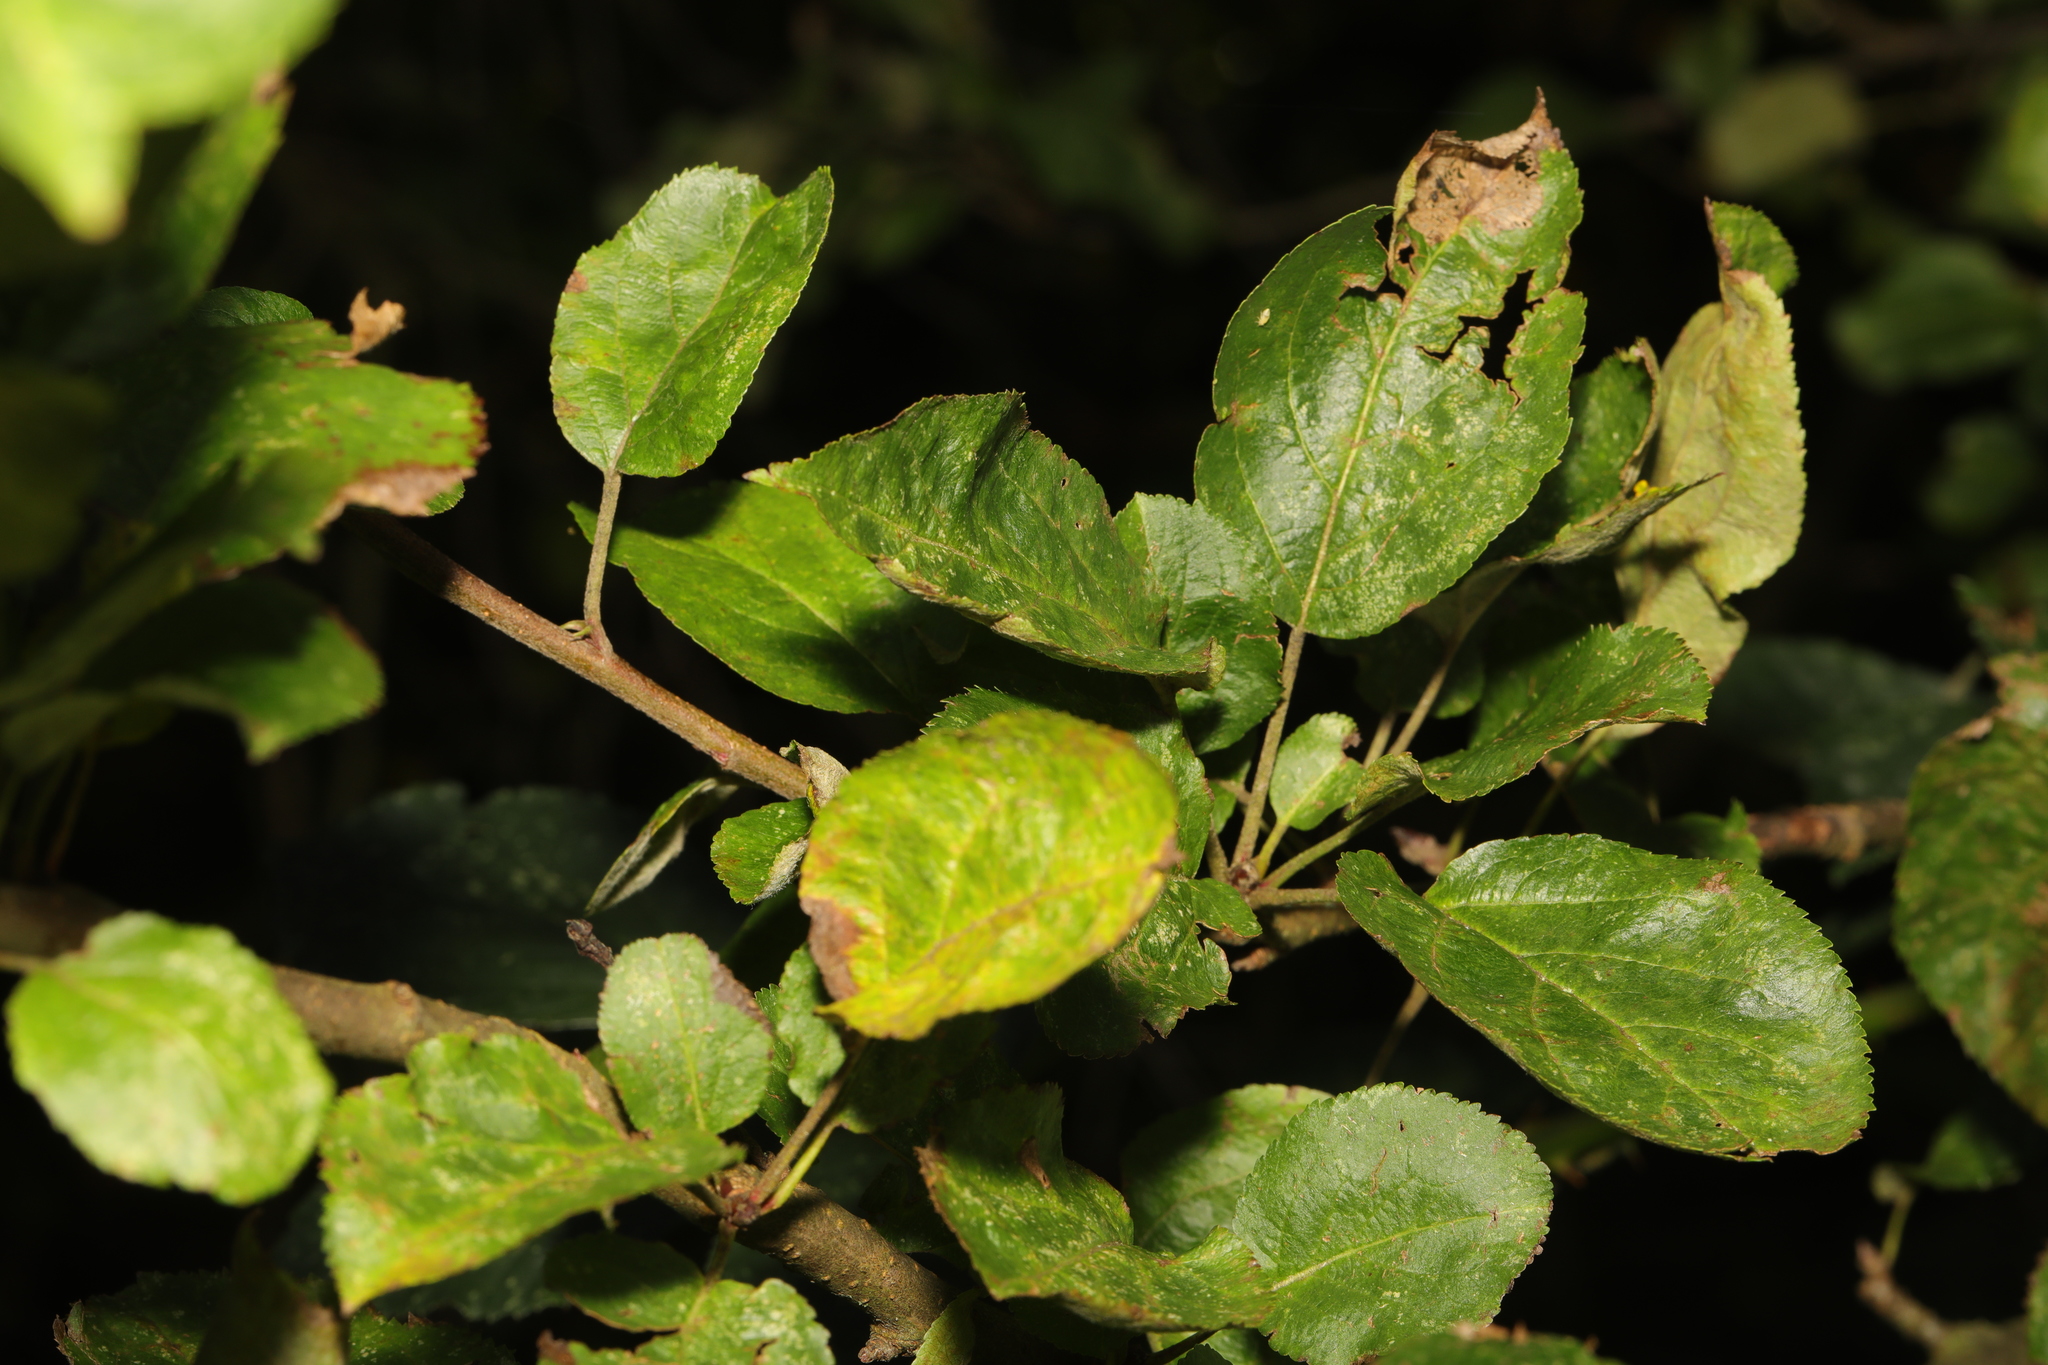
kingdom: Plantae
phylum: Tracheophyta
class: Magnoliopsida
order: Rosales
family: Rosaceae
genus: Malus
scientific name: Malus domestica
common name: Apple
